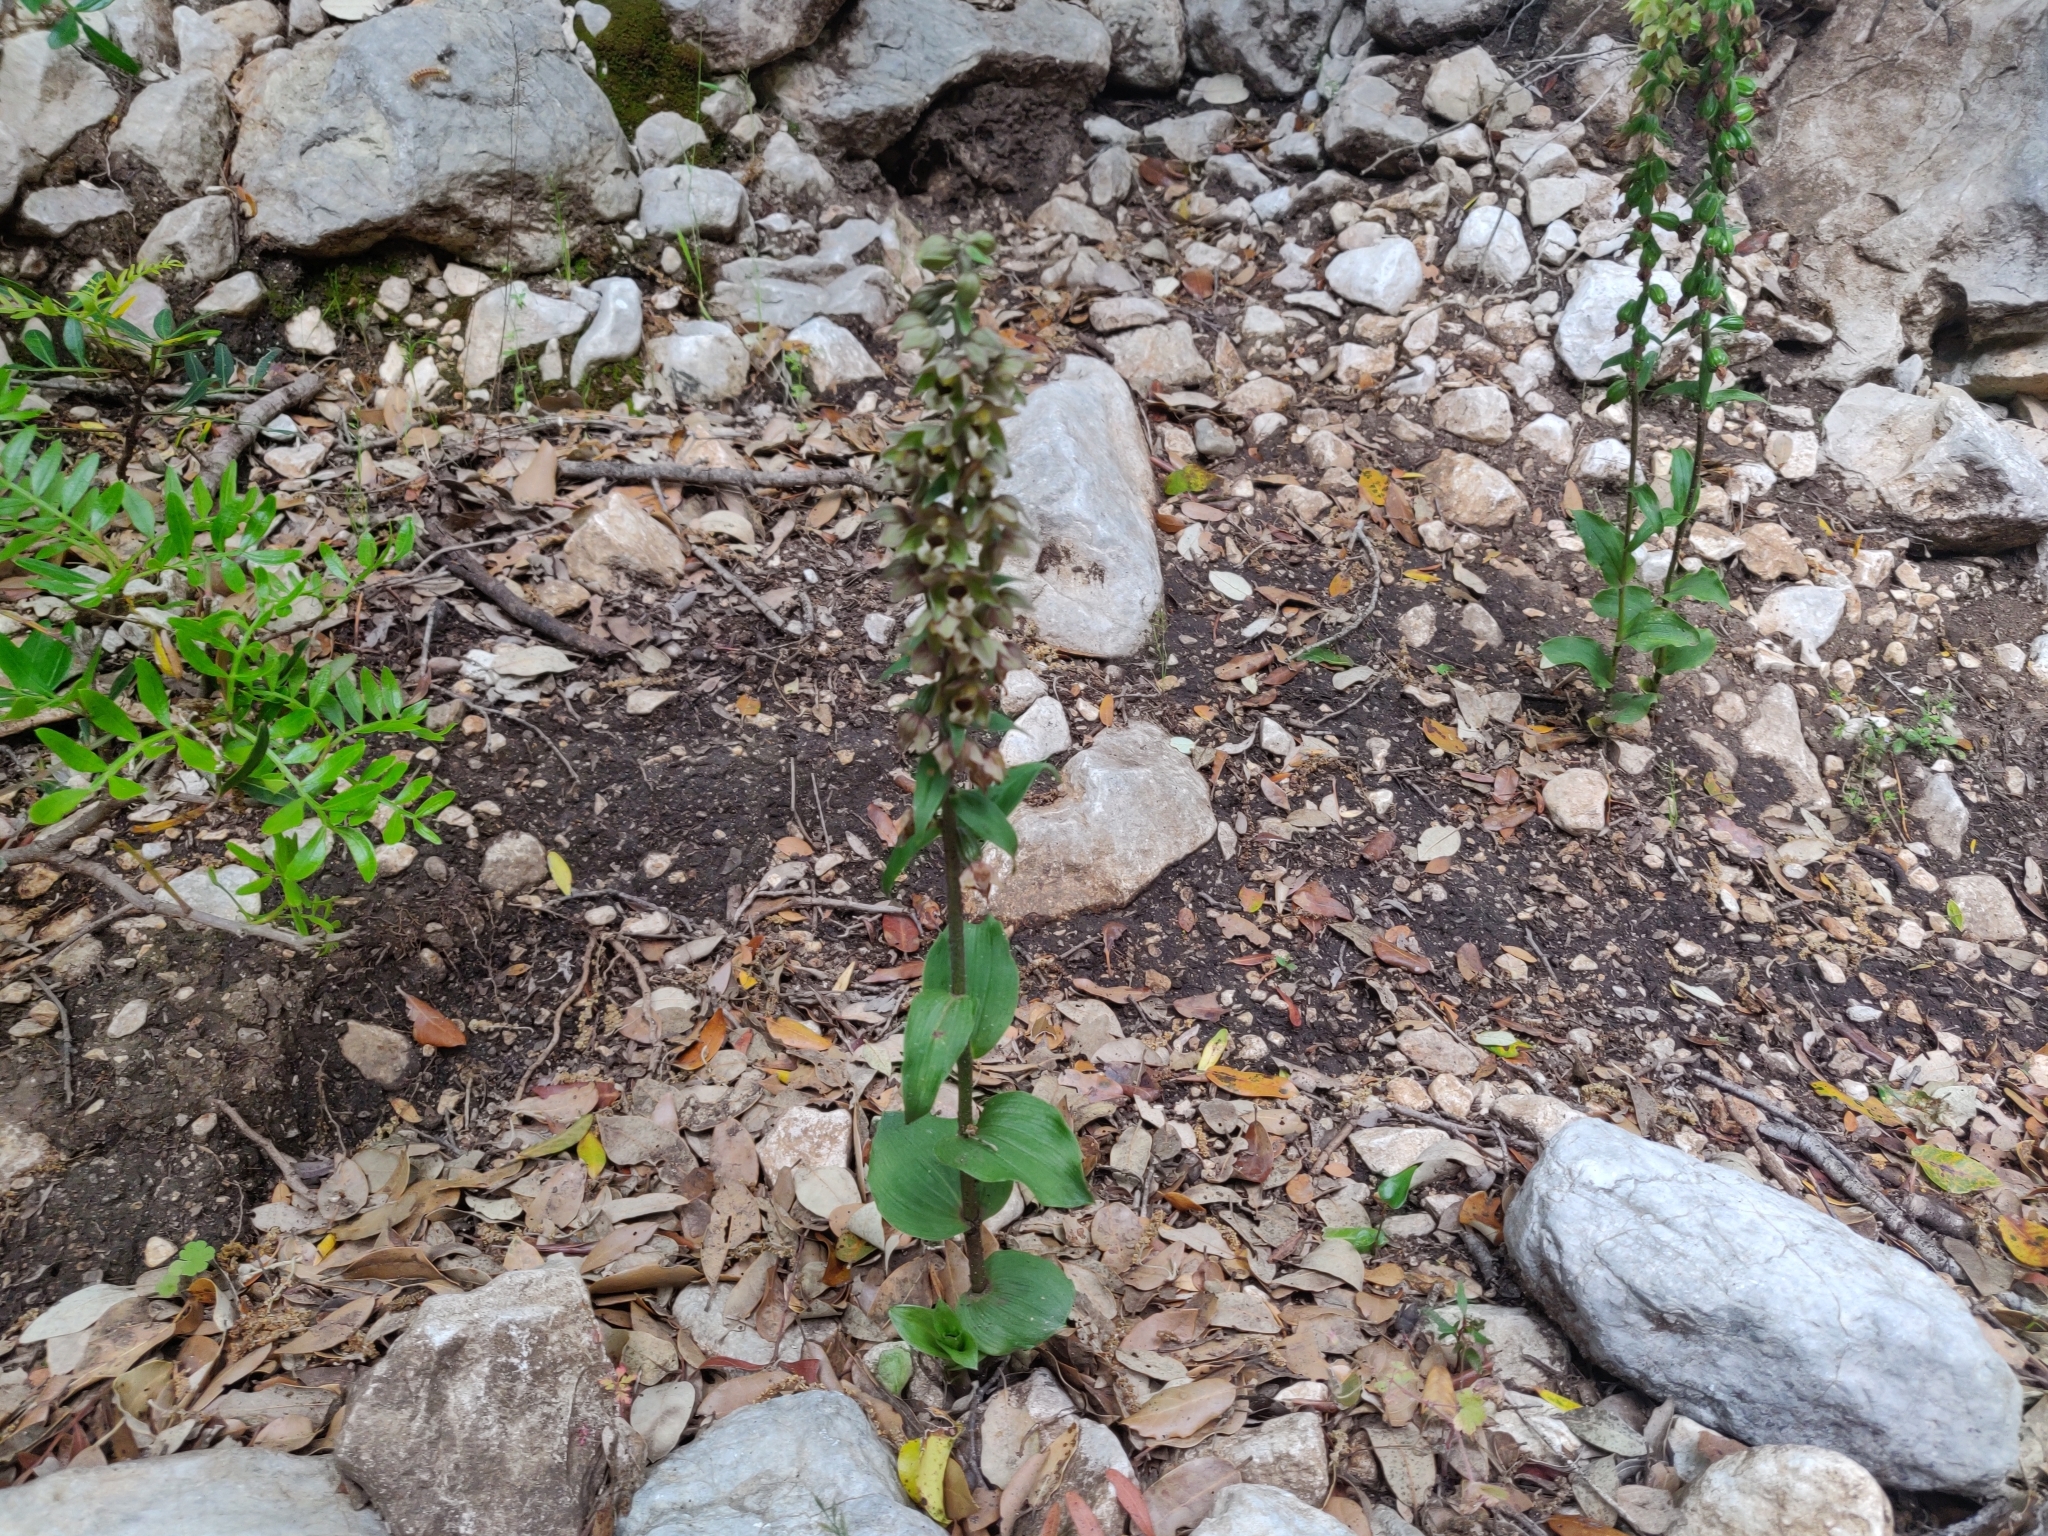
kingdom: Plantae
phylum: Tracheophyta
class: Liliopsida
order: Asparagales
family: Orchidaceae
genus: Epipactis
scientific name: Epipactis helleborine
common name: Broad-leaved helleborine
